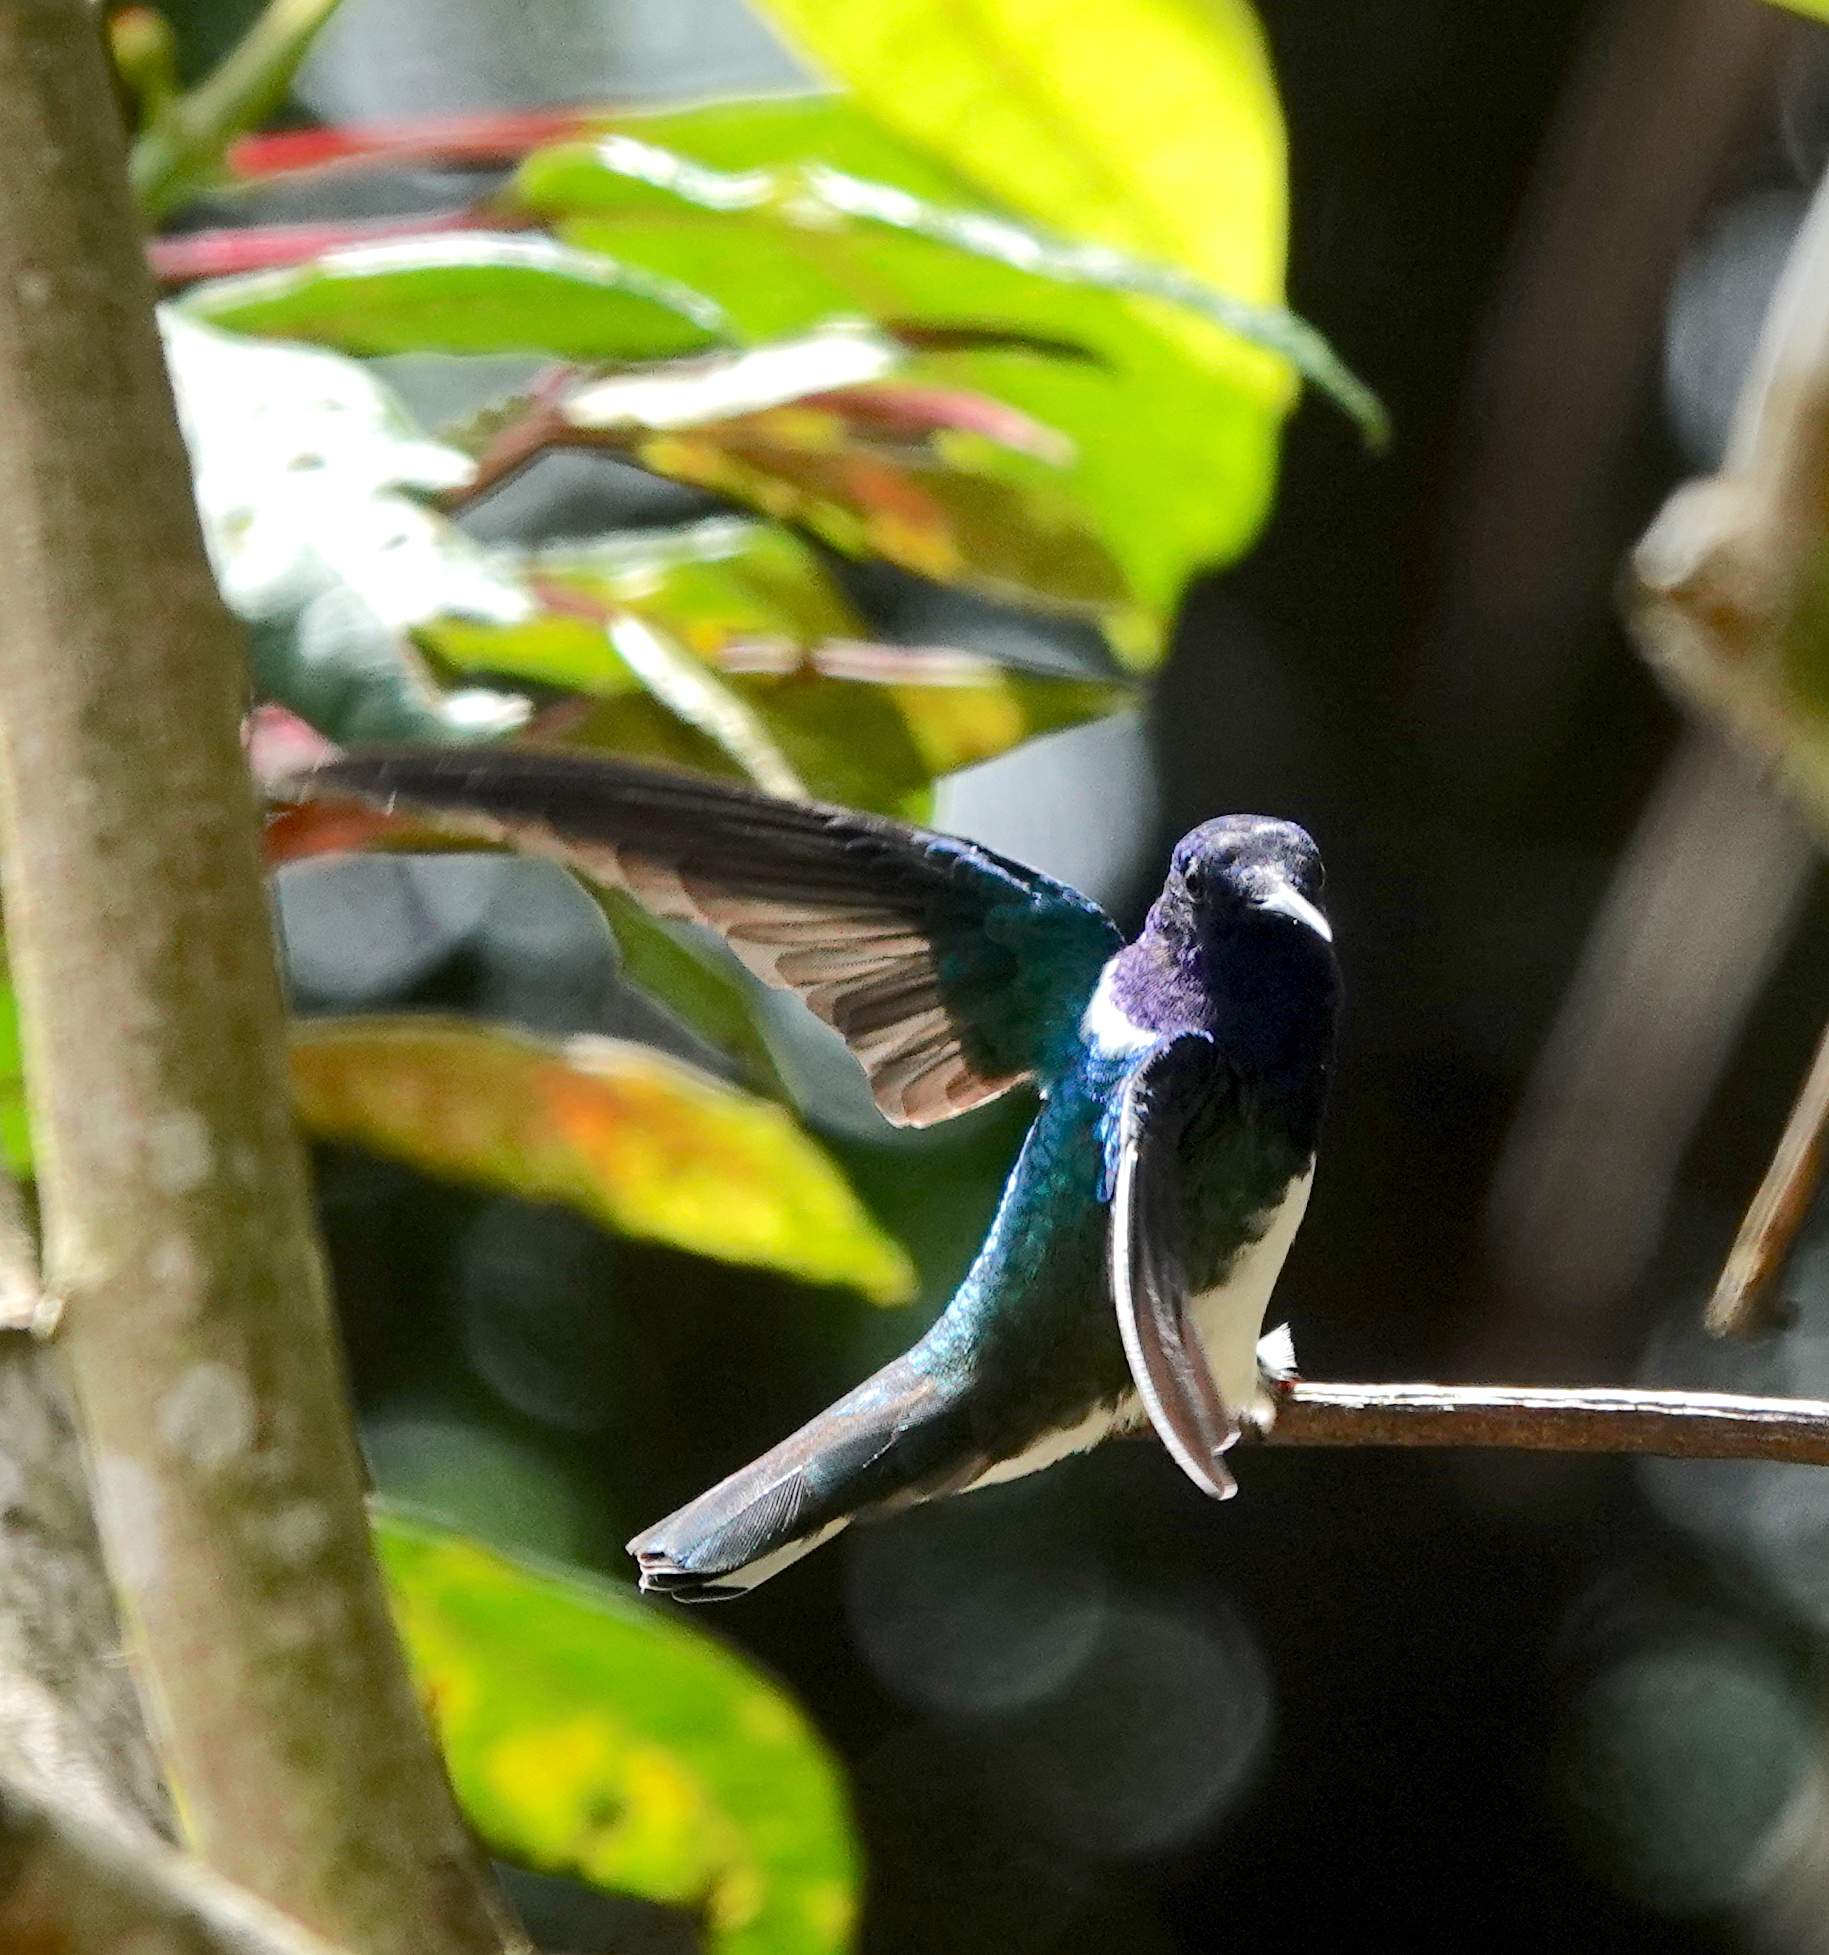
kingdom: Animalia
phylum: Chordata
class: Aves
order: Apodiformes
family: Trochilidae
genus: Florisuga
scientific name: Florisuga mellivora
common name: White-necked jacobin
